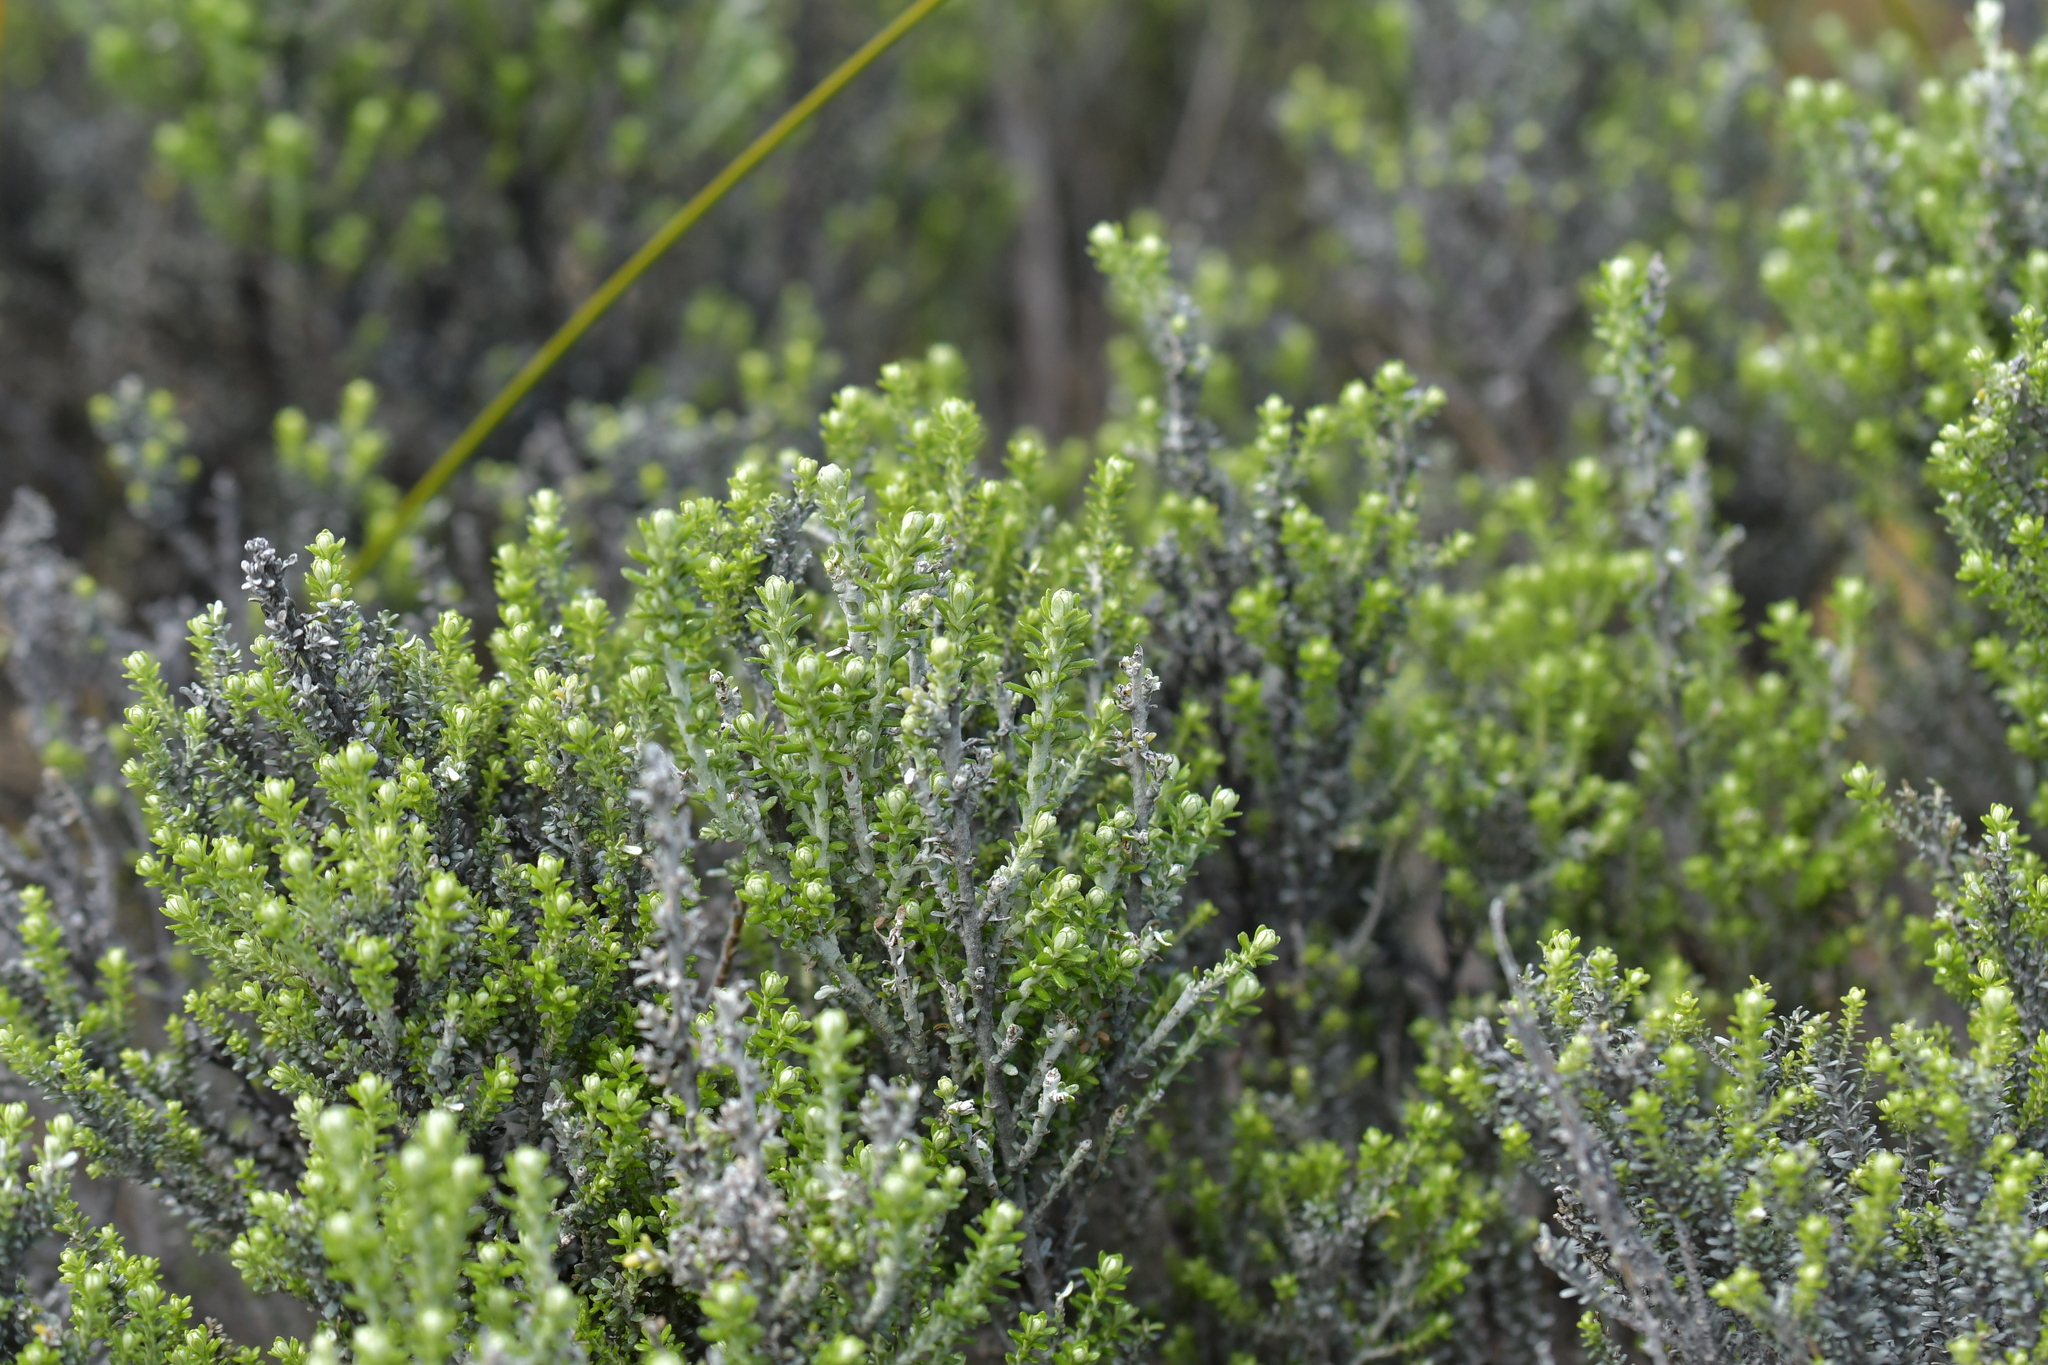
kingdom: Plantae
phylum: Tracheophyta
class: Magnoliopsida
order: Asterales
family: Asteraceae
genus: Ozothamnus
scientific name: Ozothamnus leptophyllus
